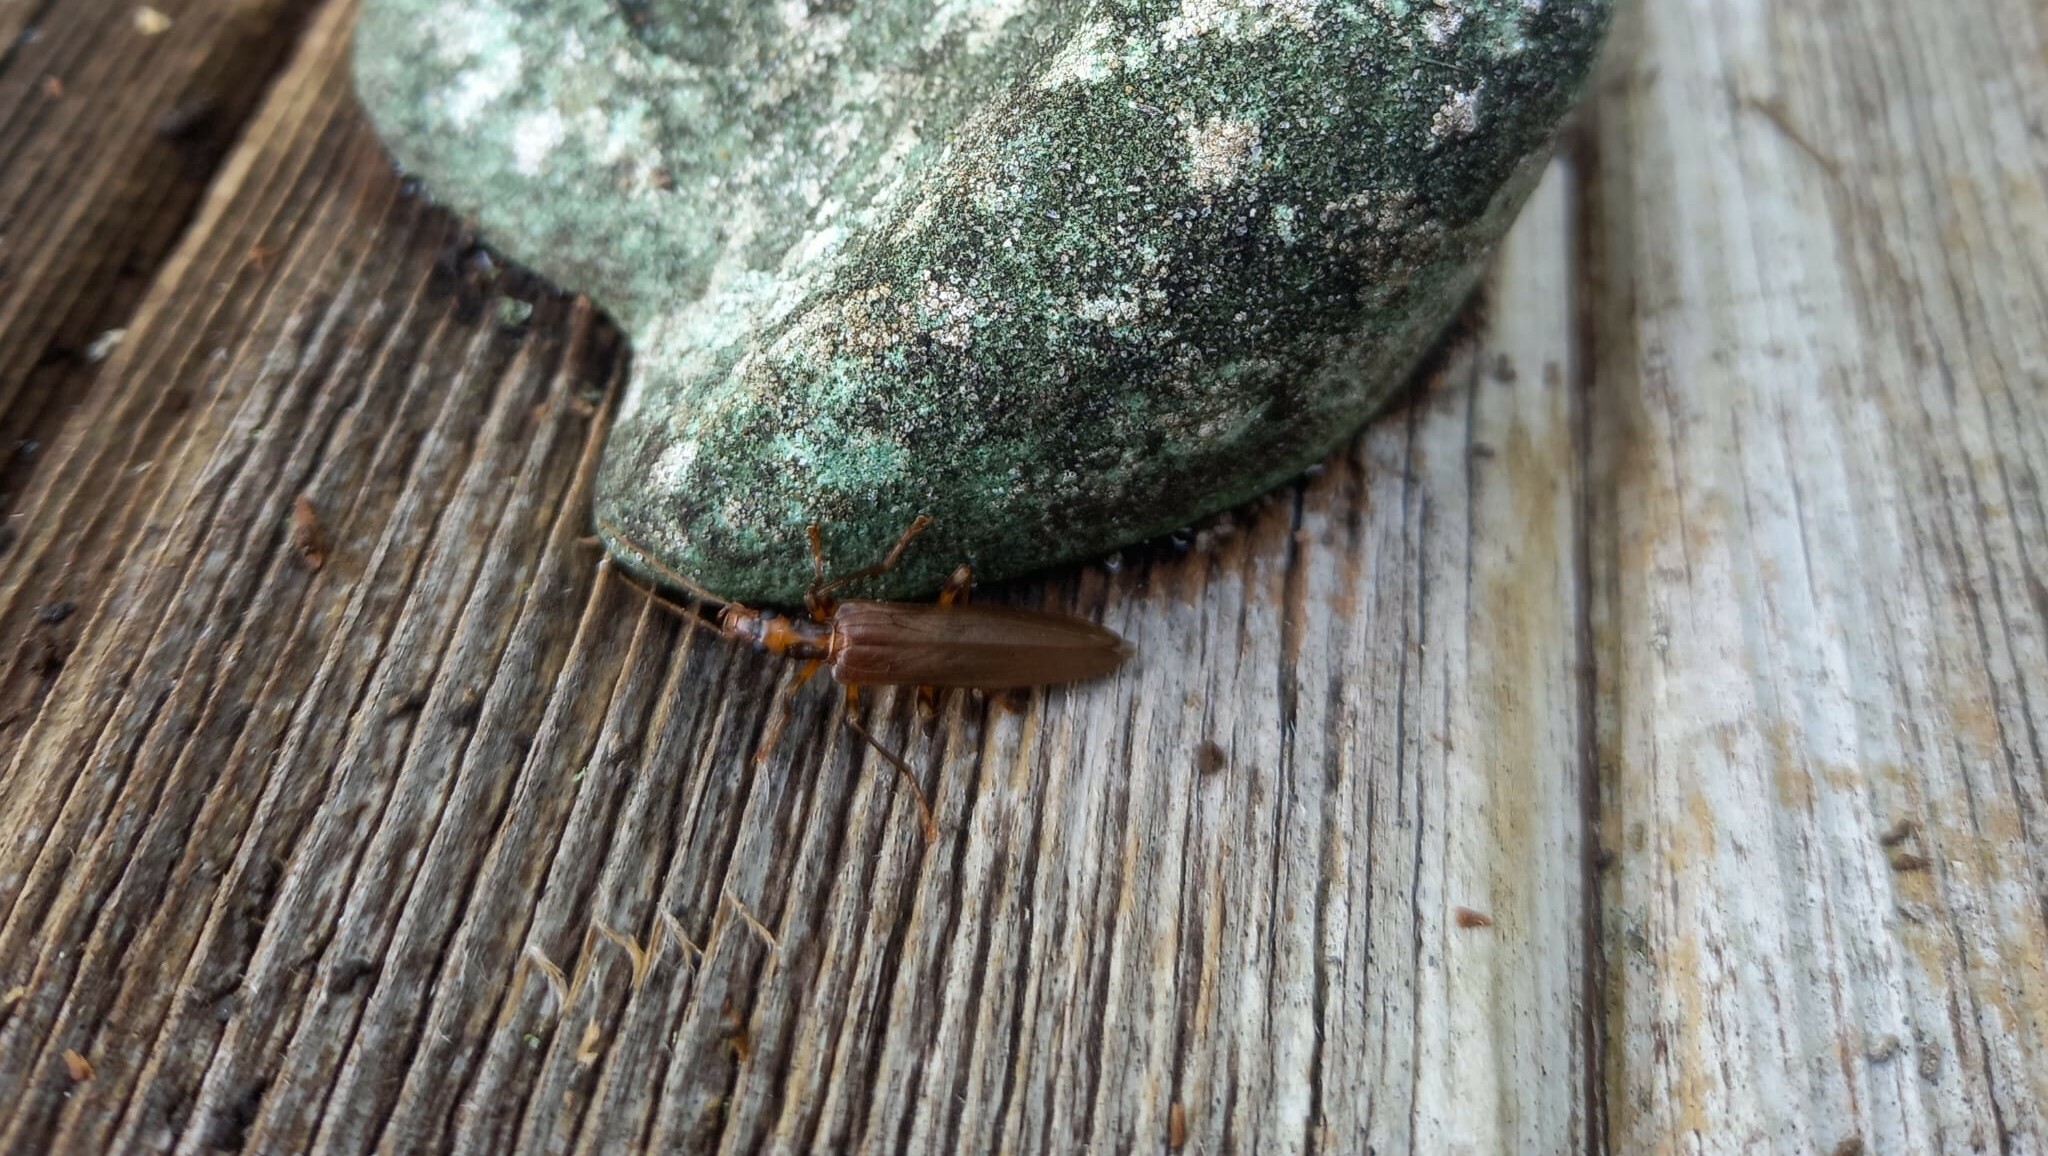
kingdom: Animalia
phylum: Arthropoda
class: Insecta
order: Coleoptera
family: Oedemeridae
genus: Oedemera
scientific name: Oedemera femoralis
